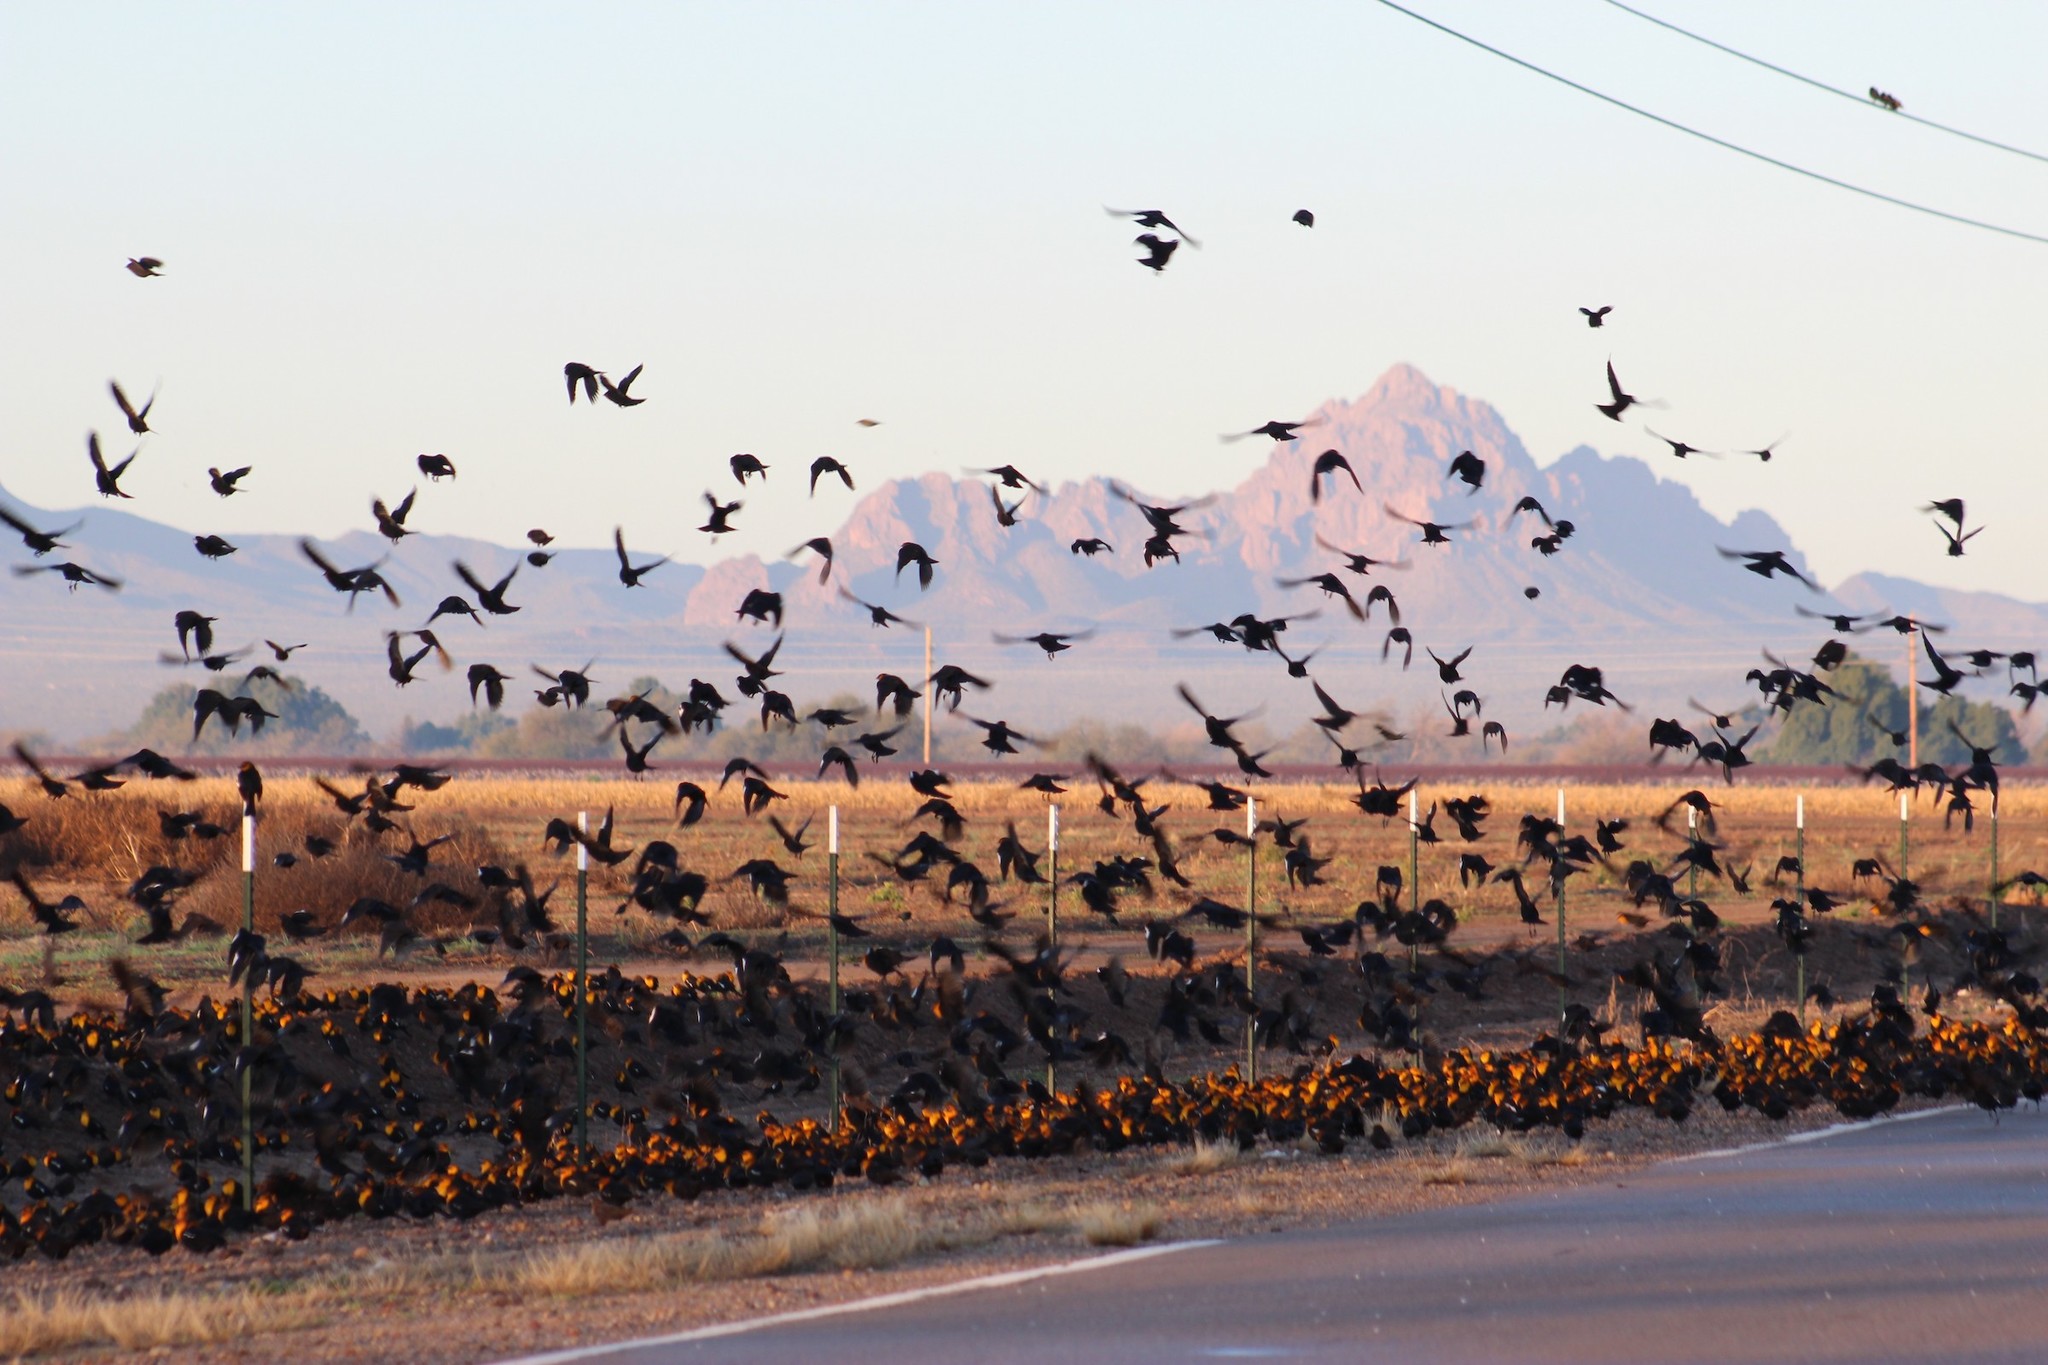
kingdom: Animalia
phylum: Chordata
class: Aves
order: Passeriformes
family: Icteridae
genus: Xanthocephalus
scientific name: Xanthocephalus xanthocephalus
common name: Yellow-headed blackbird
